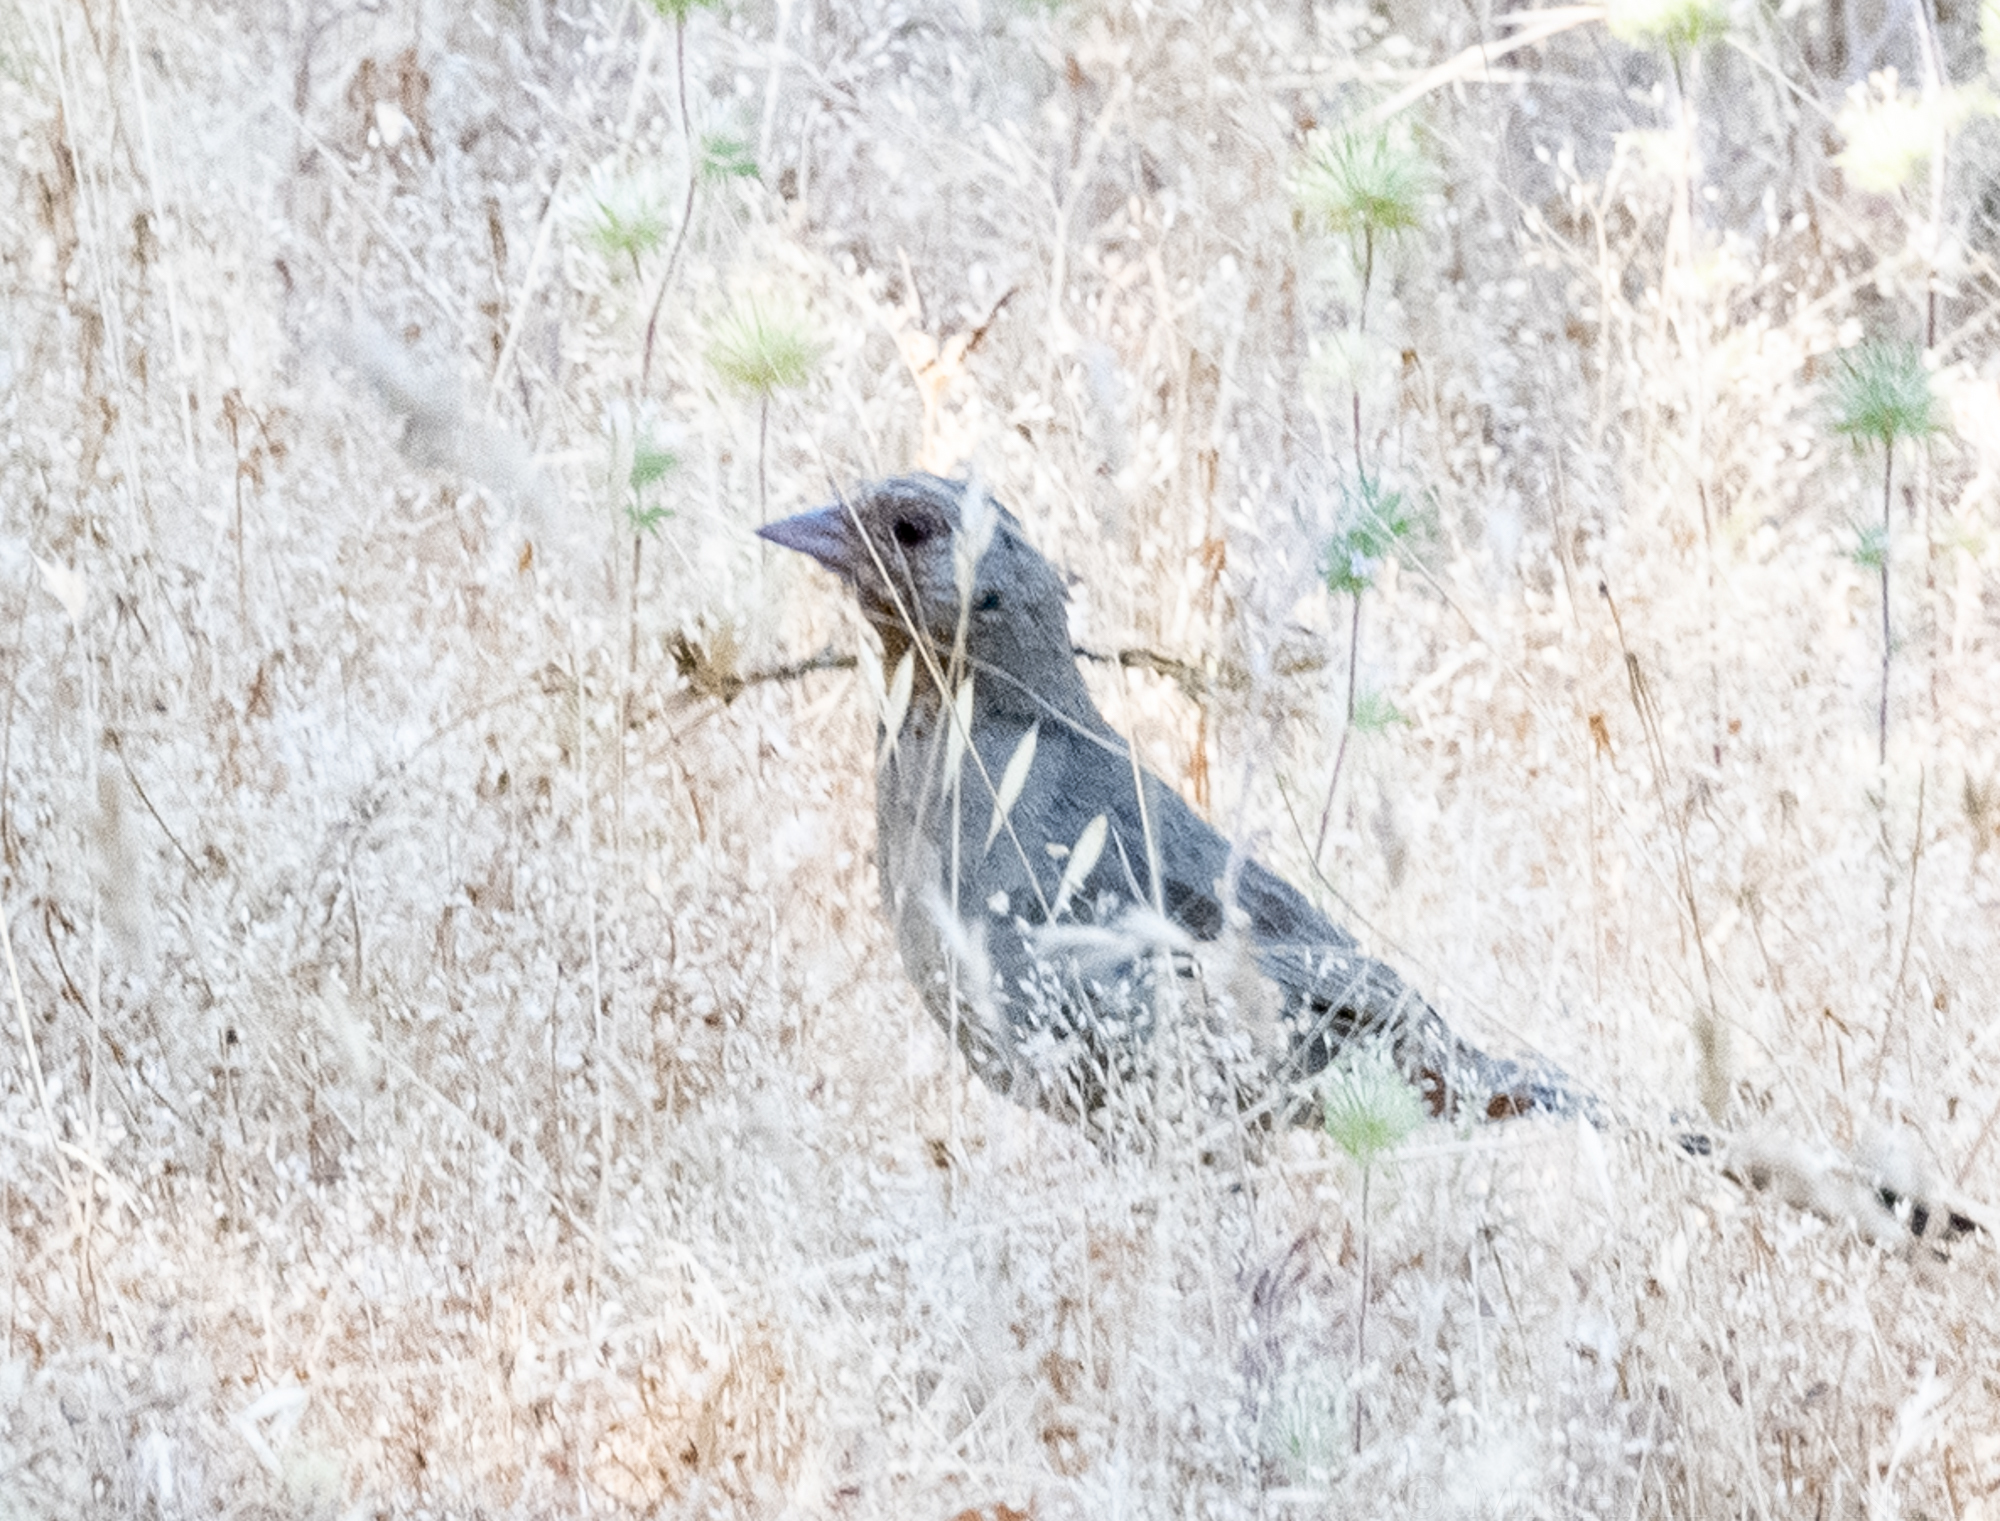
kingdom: Animalia
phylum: Chordata
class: Aves
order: Passeriformes
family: Passerellidae
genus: Melozone
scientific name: Melozone crissalis
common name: California towhee
